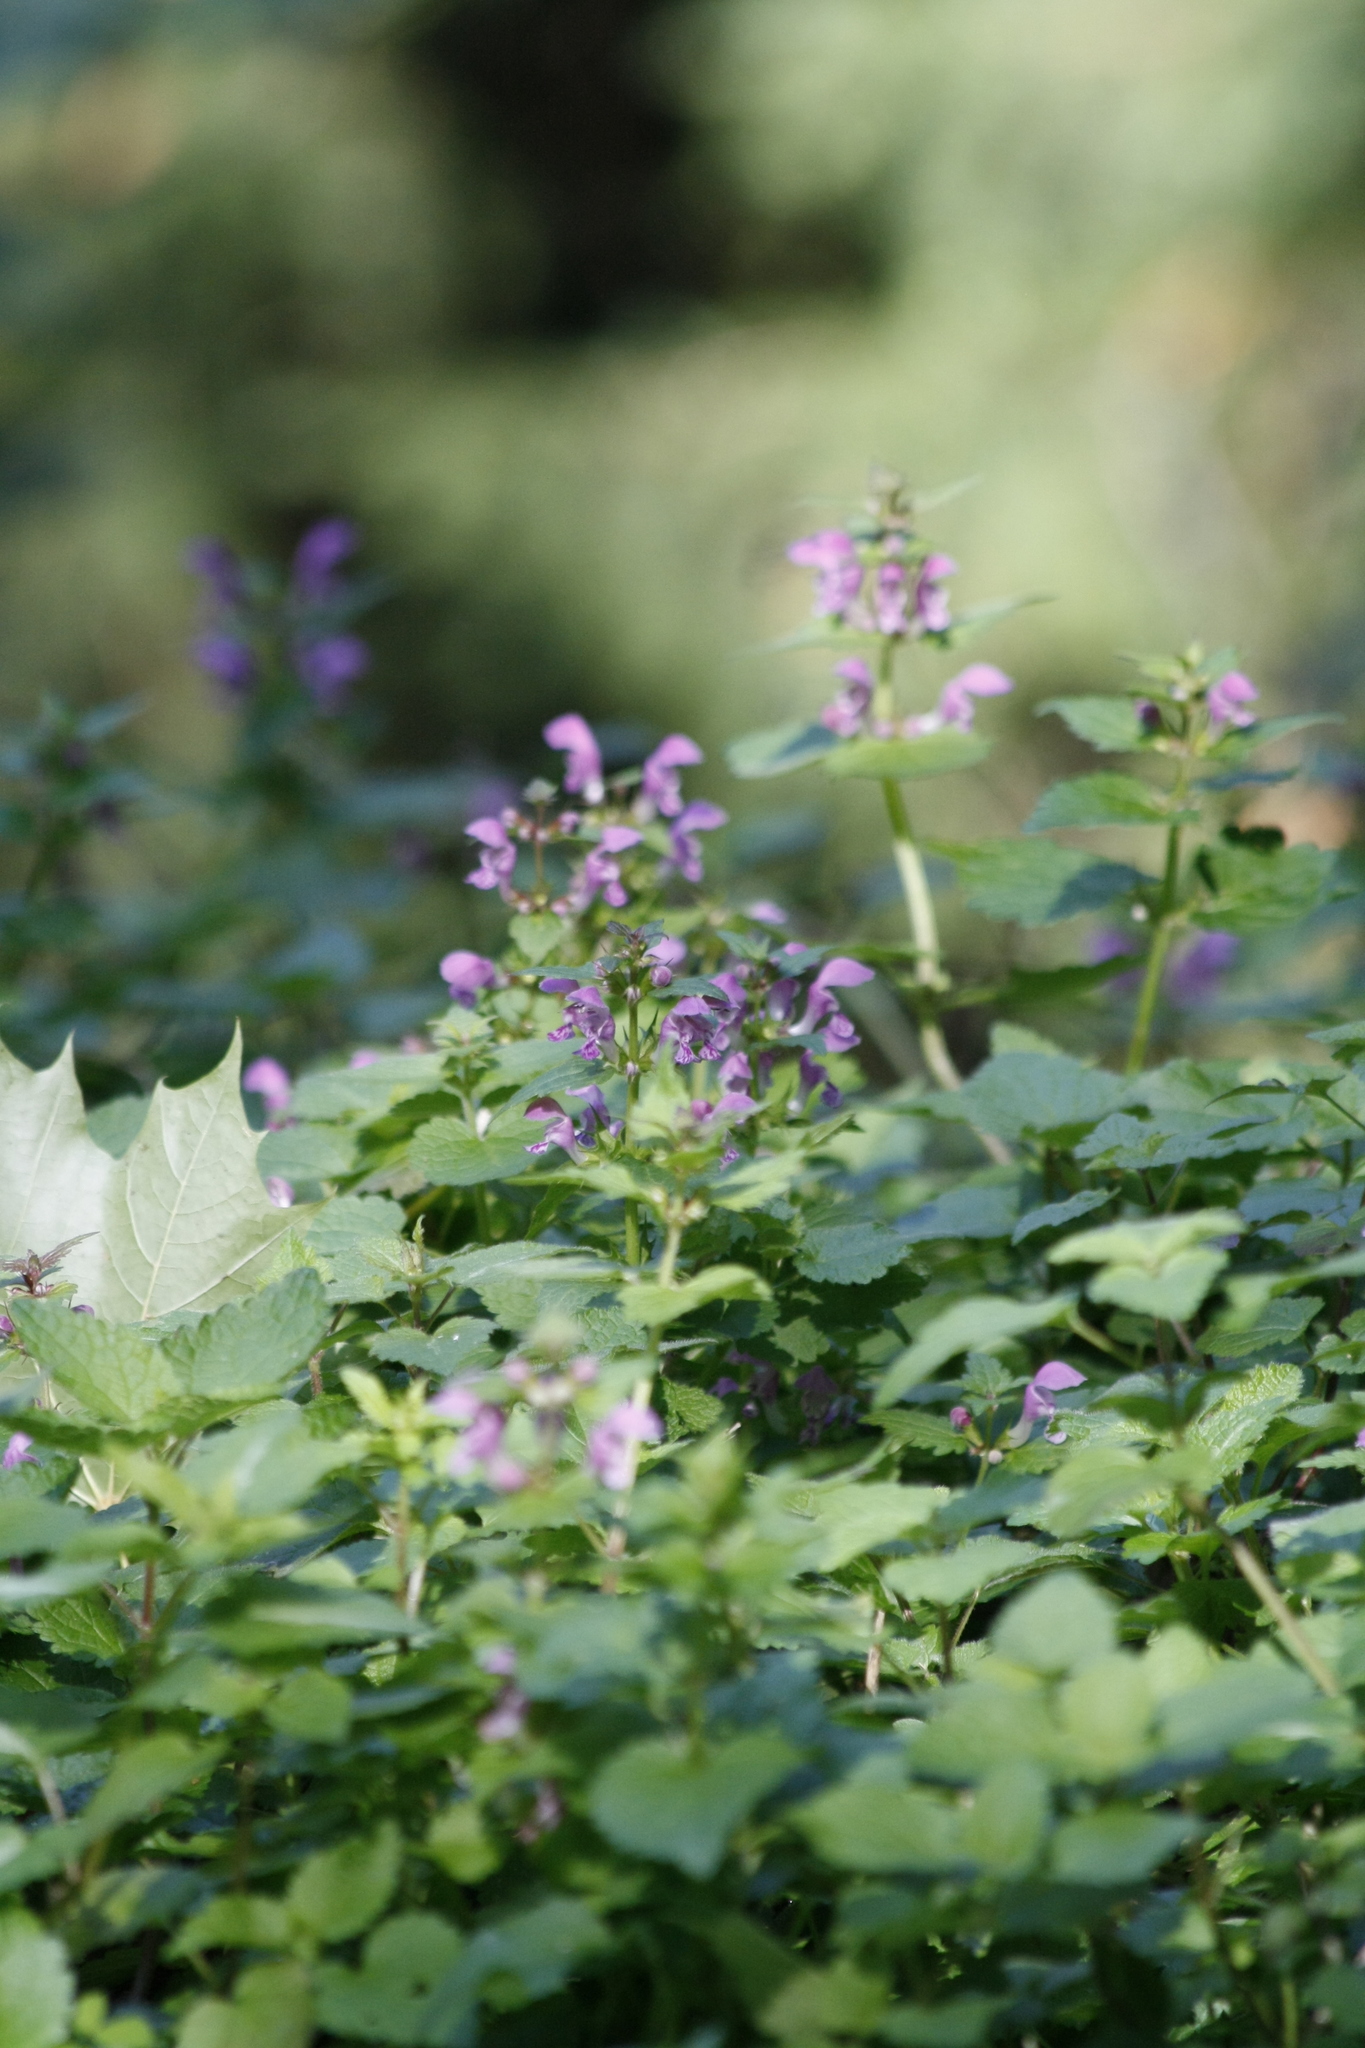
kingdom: Plantae
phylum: Tracheophyta
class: Magnoliopsida
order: Lamiales
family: Lamiaceae
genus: Lamium
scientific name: Lamium maculatum
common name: Spotted dead-nettle
